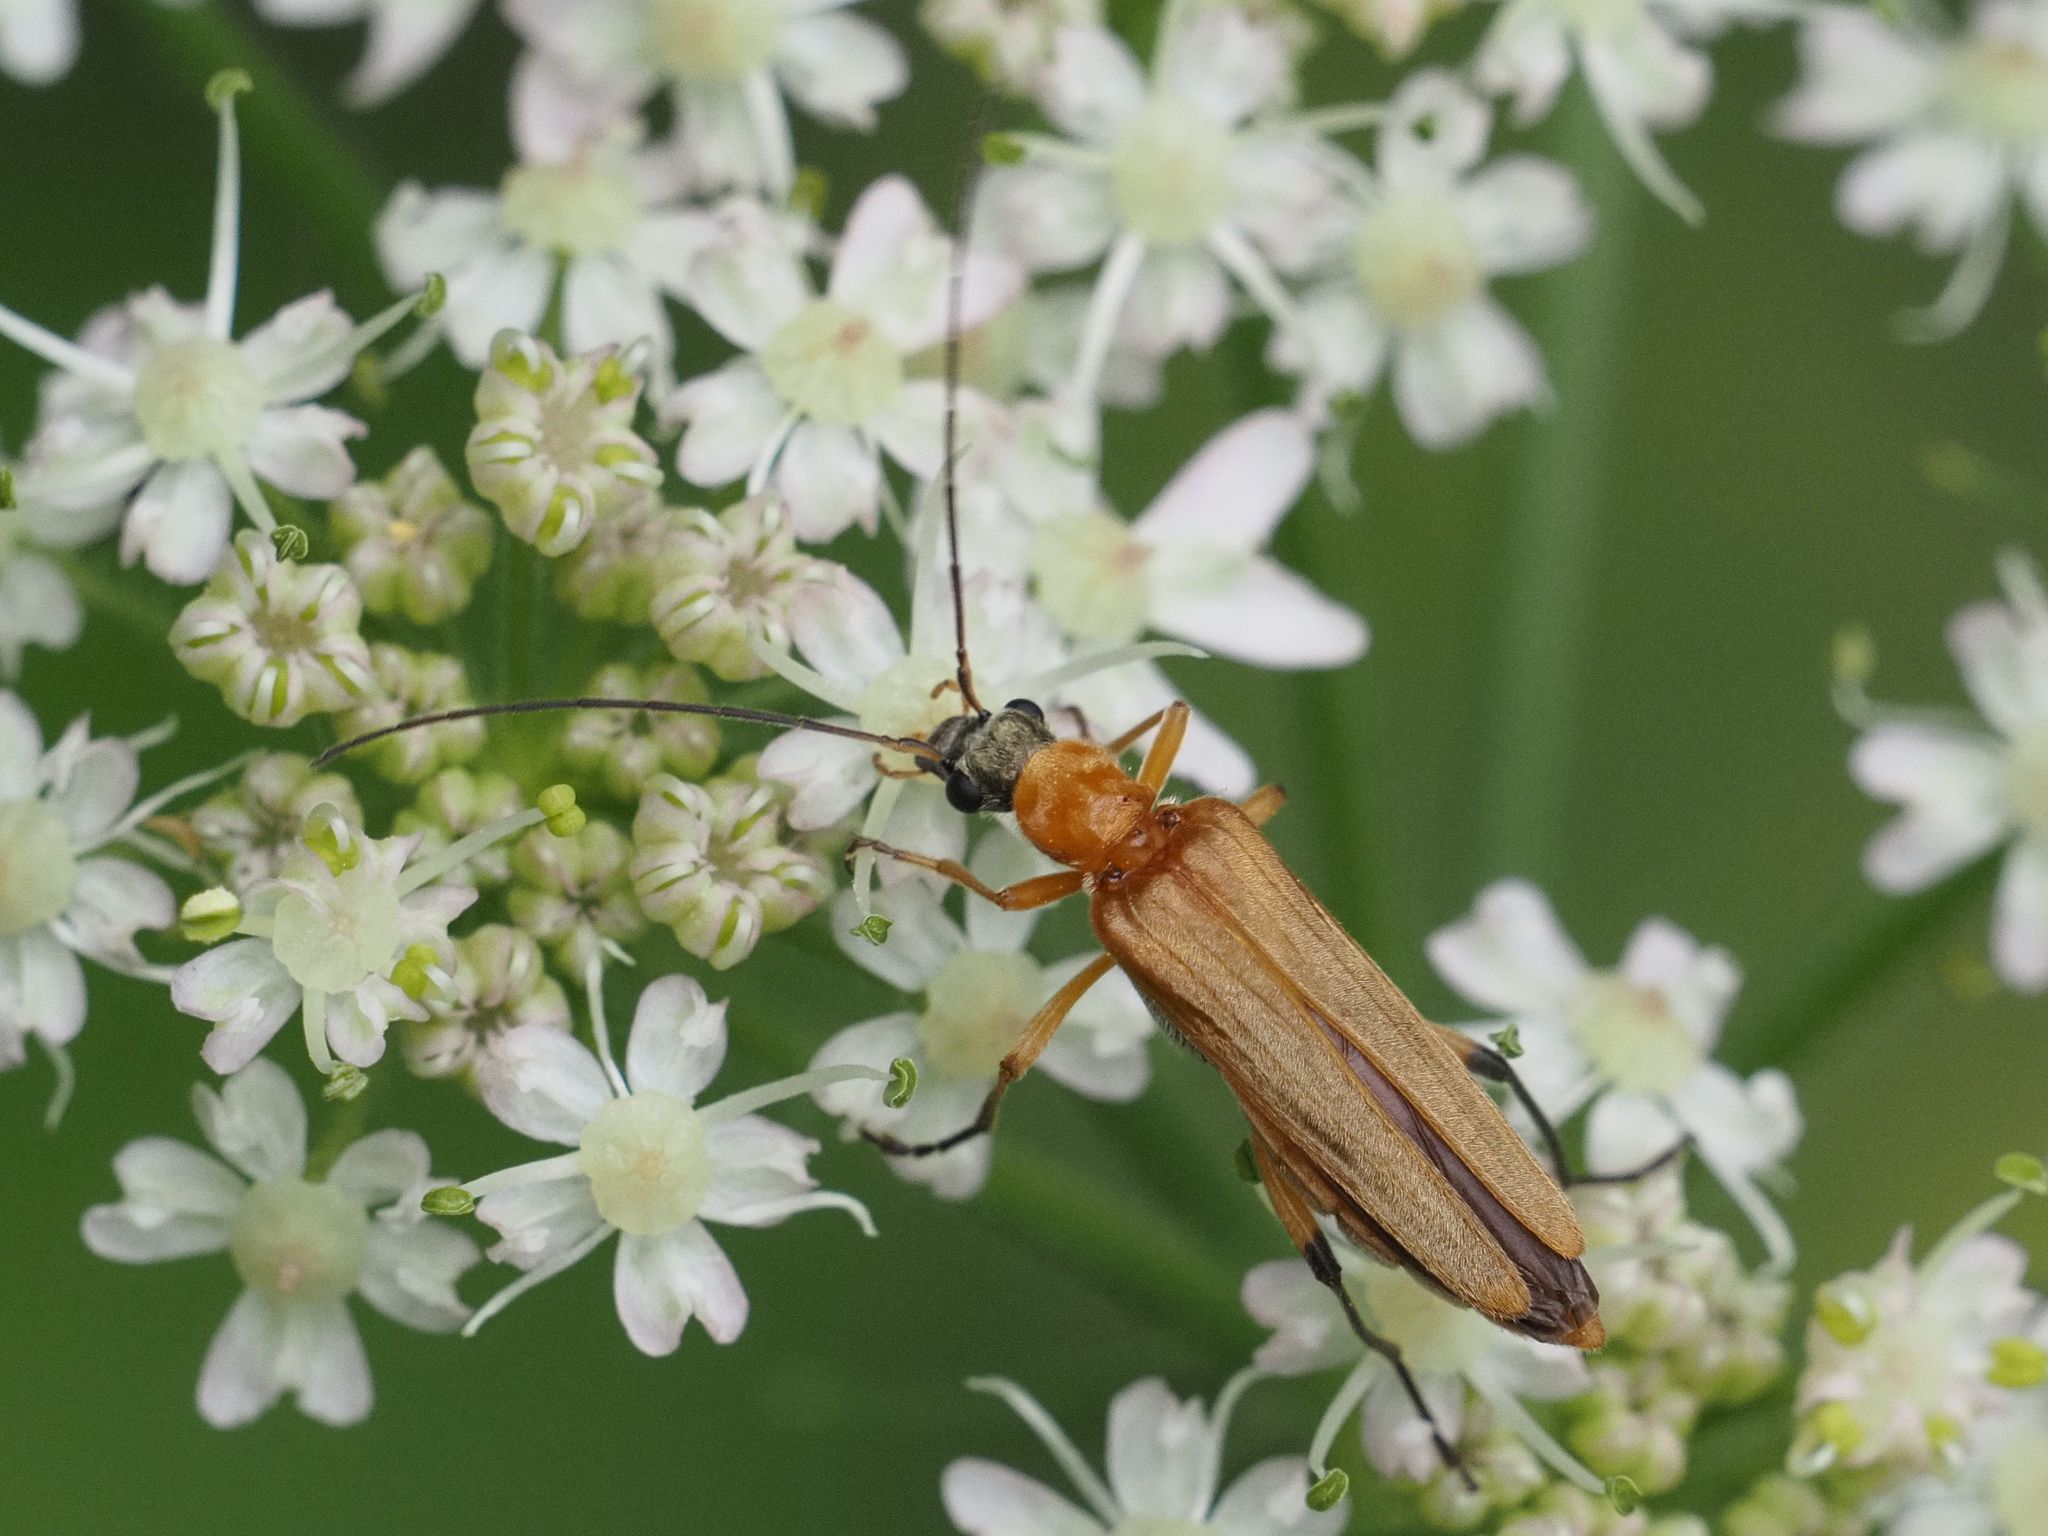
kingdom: Animalia
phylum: Arthropoda
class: Insecta
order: Coleoptera
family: Oedemeridae
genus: Oedemera
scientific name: Oedemera podagrariae
